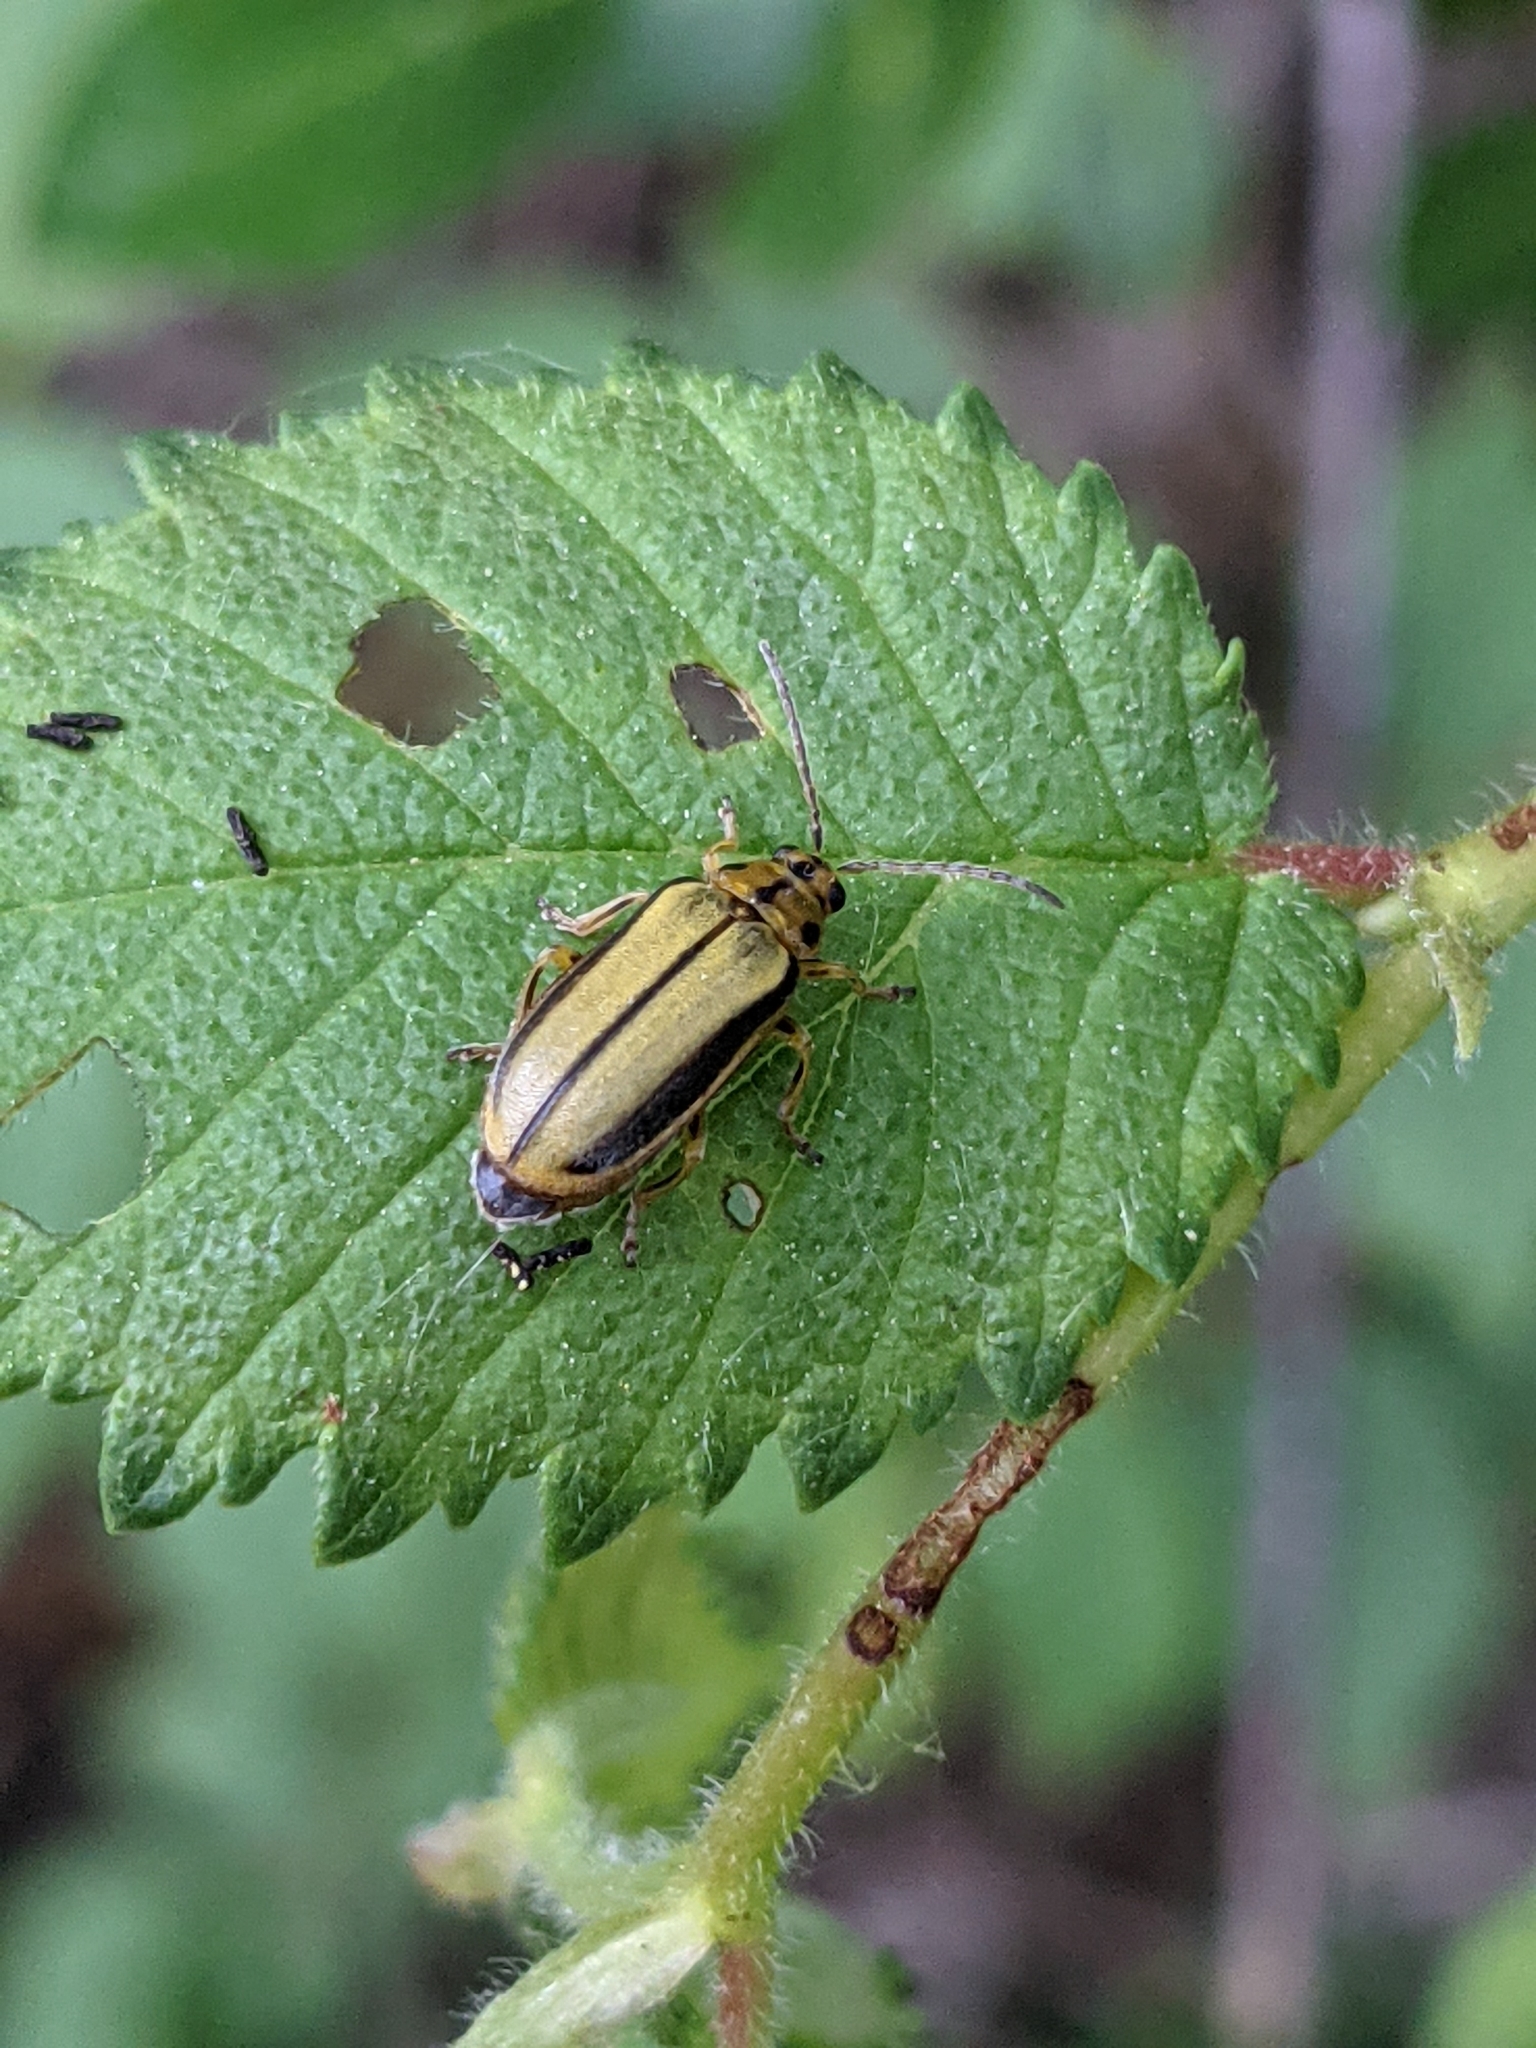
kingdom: Animalia
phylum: Arthropoda
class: Insecta
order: Coleoptera
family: Chrysomelidae
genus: Xanthogaleruca
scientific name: Xanthogaleruca luteola
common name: Elm leaf beetle
